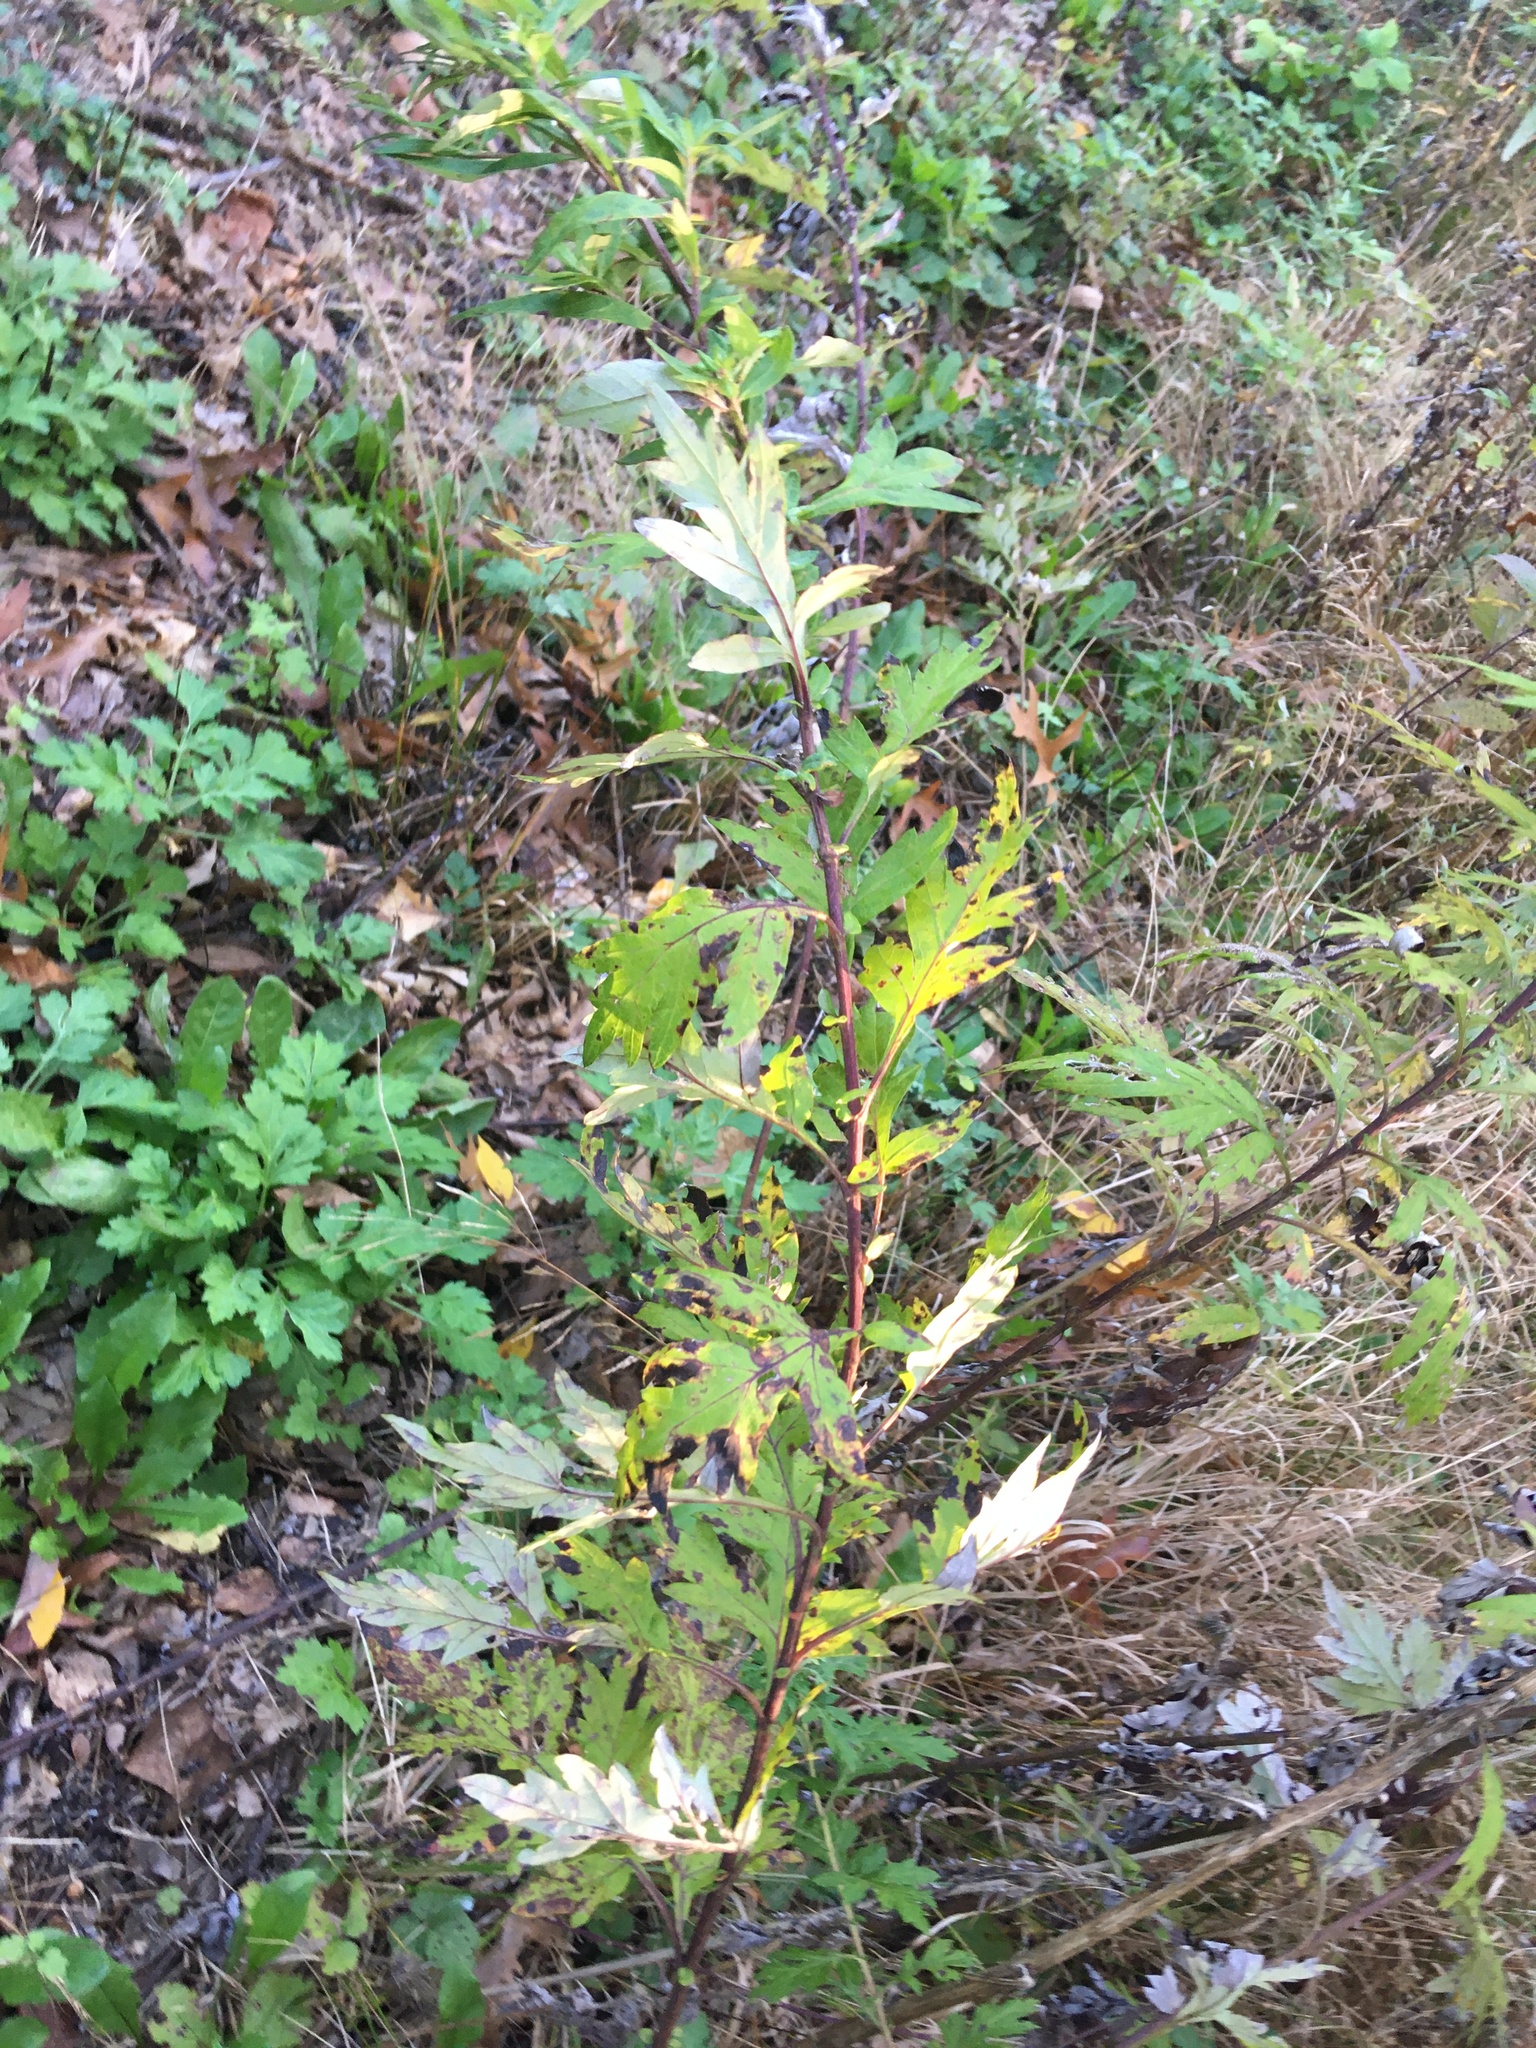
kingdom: Plantae
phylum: Tracheophyta
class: Magnoliopsida
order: Asterales
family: Asteraceae
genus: Artemisia
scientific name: Artemisia vulgaris
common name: Mugwort
